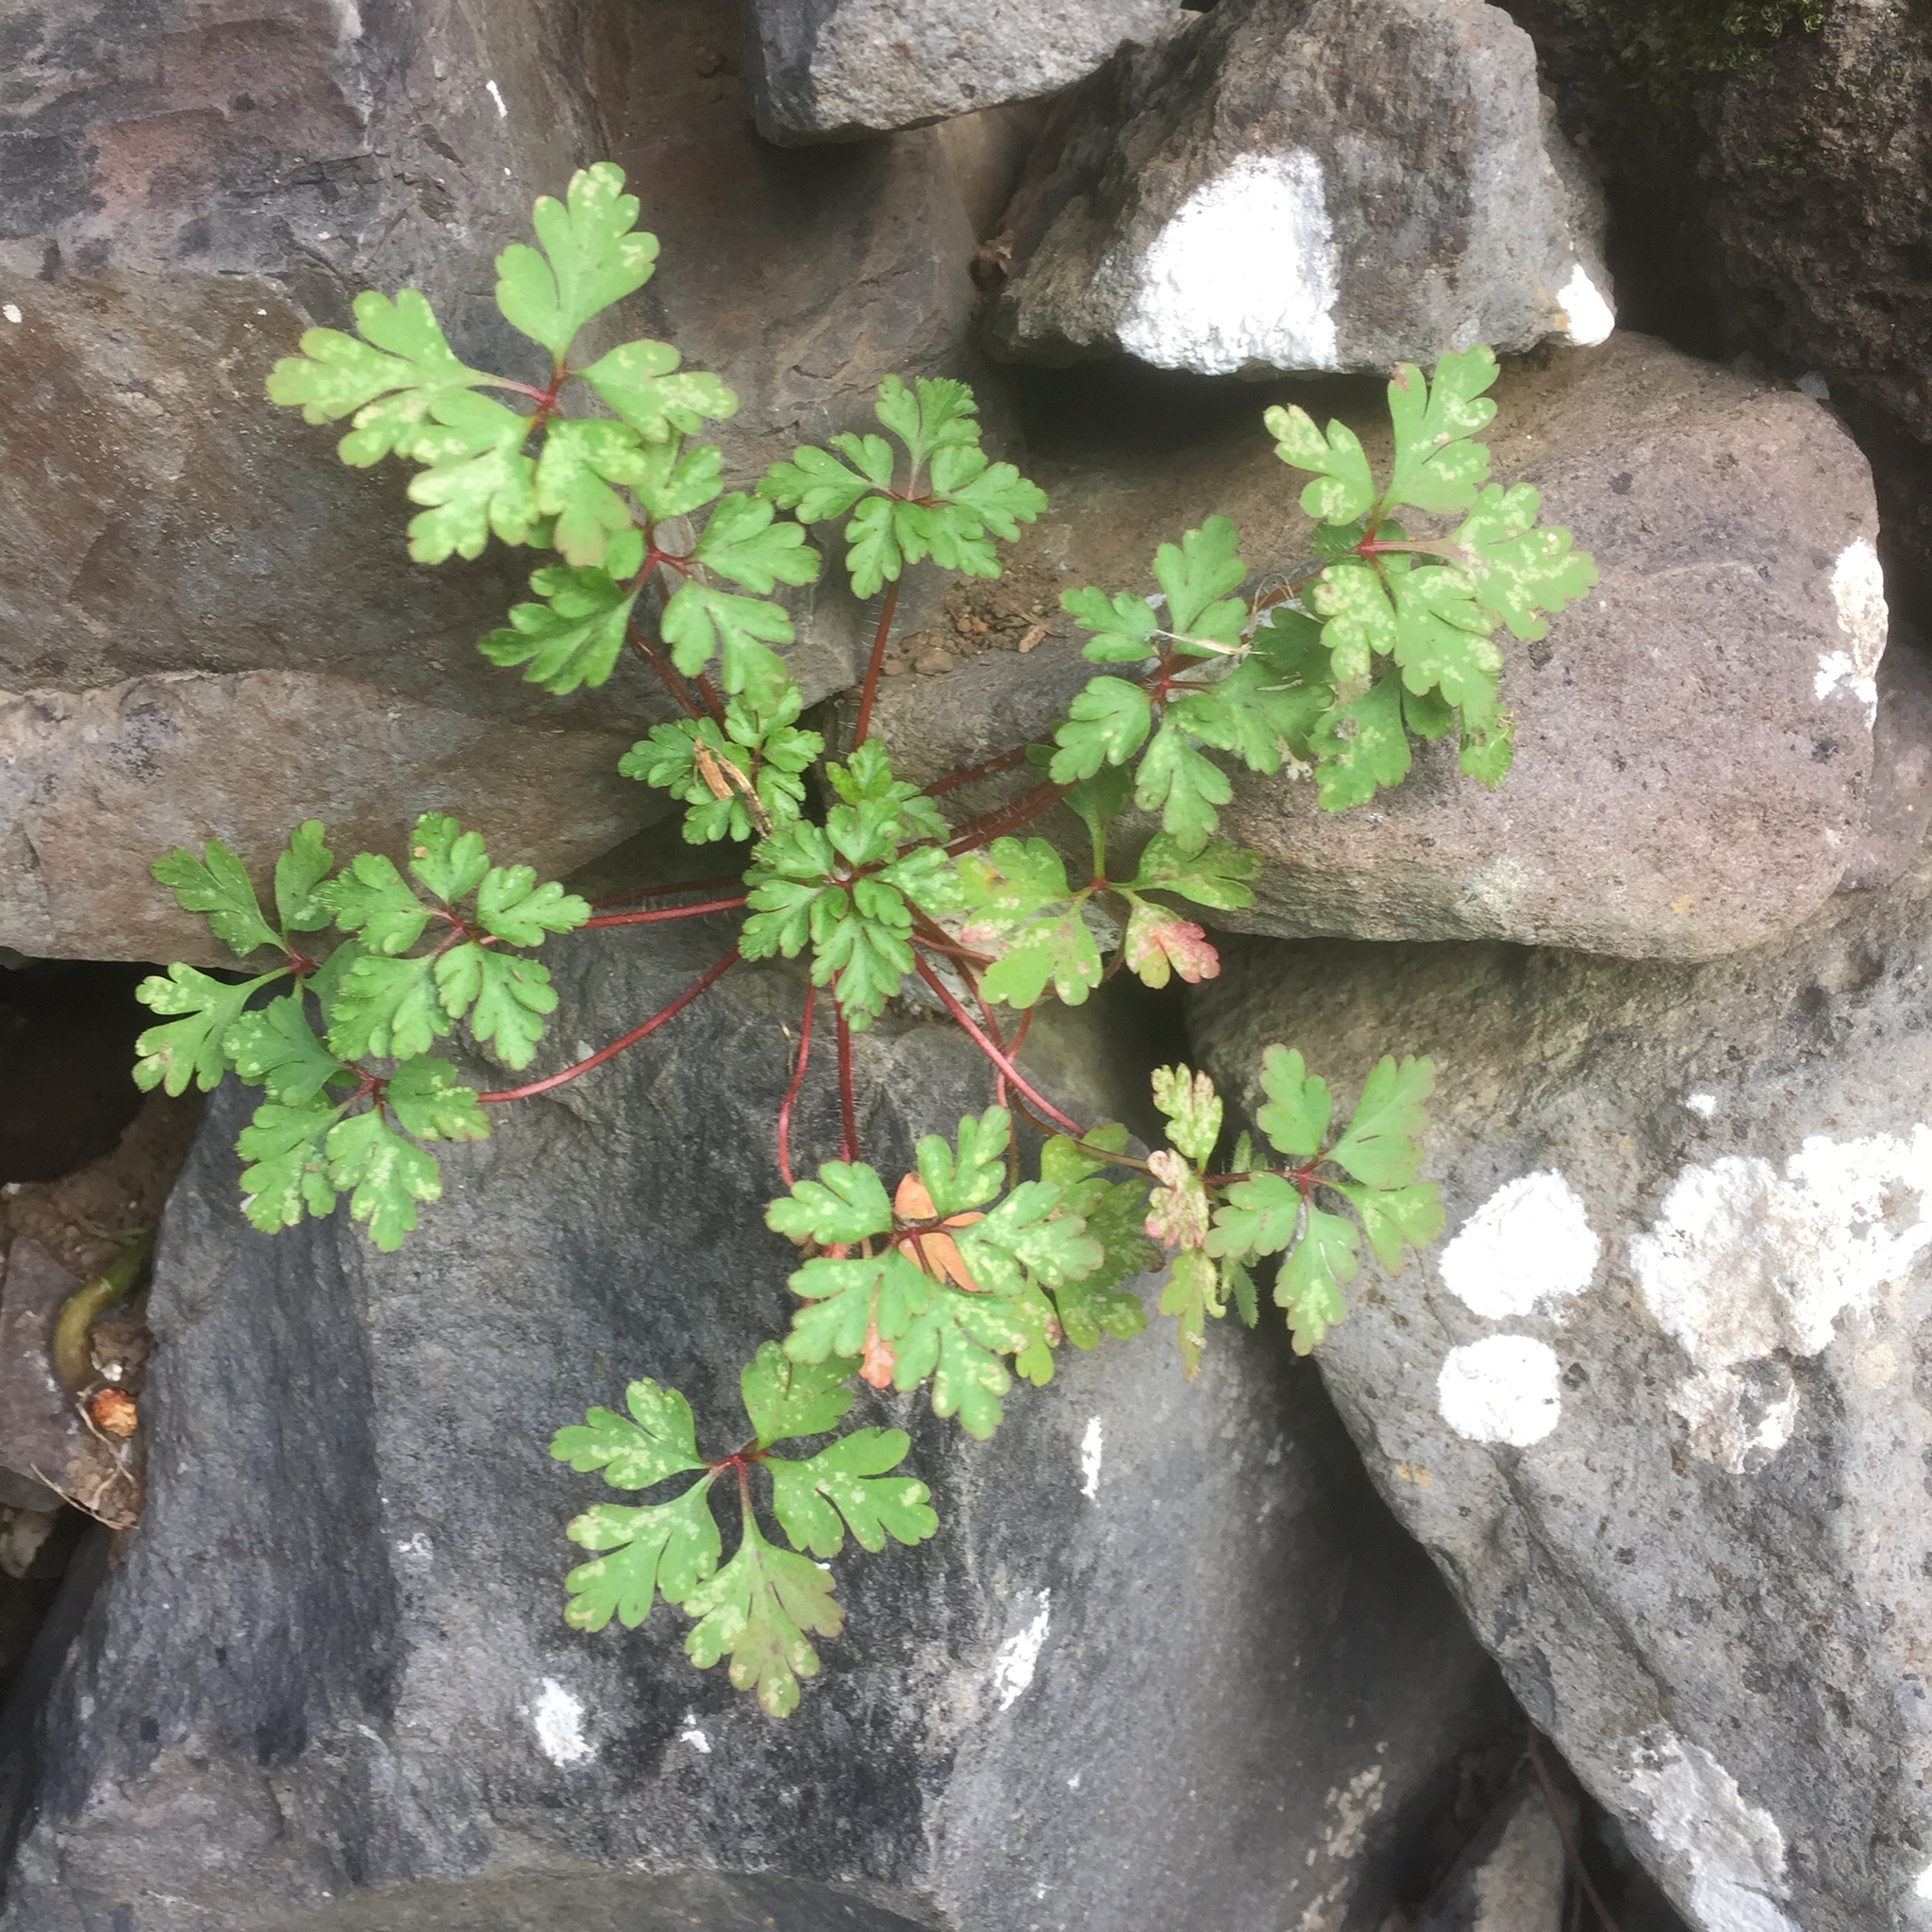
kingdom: Plantae
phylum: Tracheophyta
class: Magnoliopsida
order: Geraniales
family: Geraniaceae
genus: Geranium
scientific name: Geranium robertianum
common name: Herb-robert
